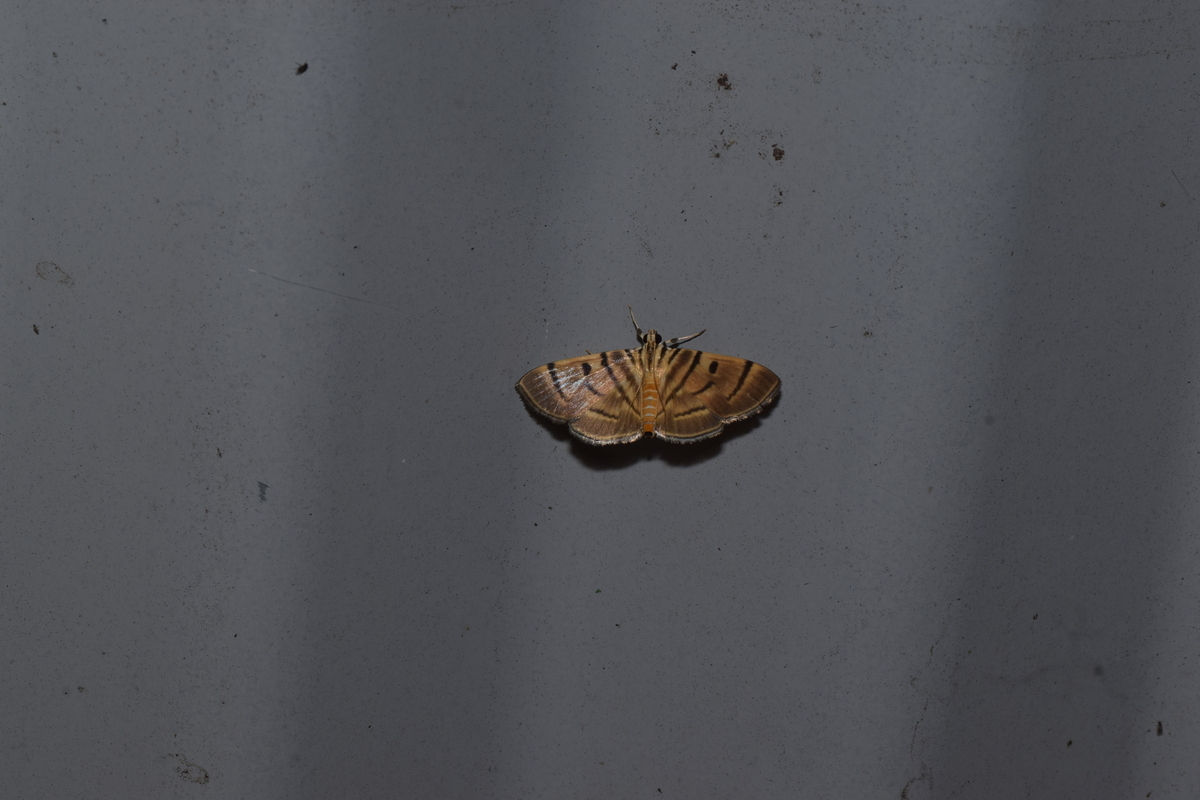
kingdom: Animalia
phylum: Arthropoda
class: Insecta
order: Lepidoptera
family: Crambidae
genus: Dichocrocis
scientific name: Dichocrocis definita
